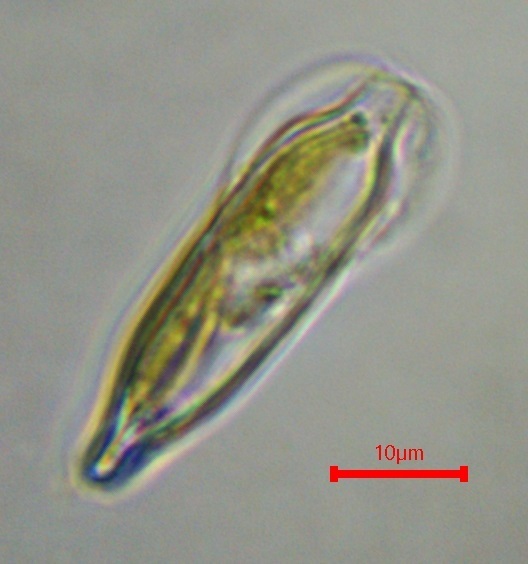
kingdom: Chromista
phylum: Ochrophyta
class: Bacillariophyceae
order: Surirellales
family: Entomoneidaceae
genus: Entomoneis
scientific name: Entomoneis paludosa
